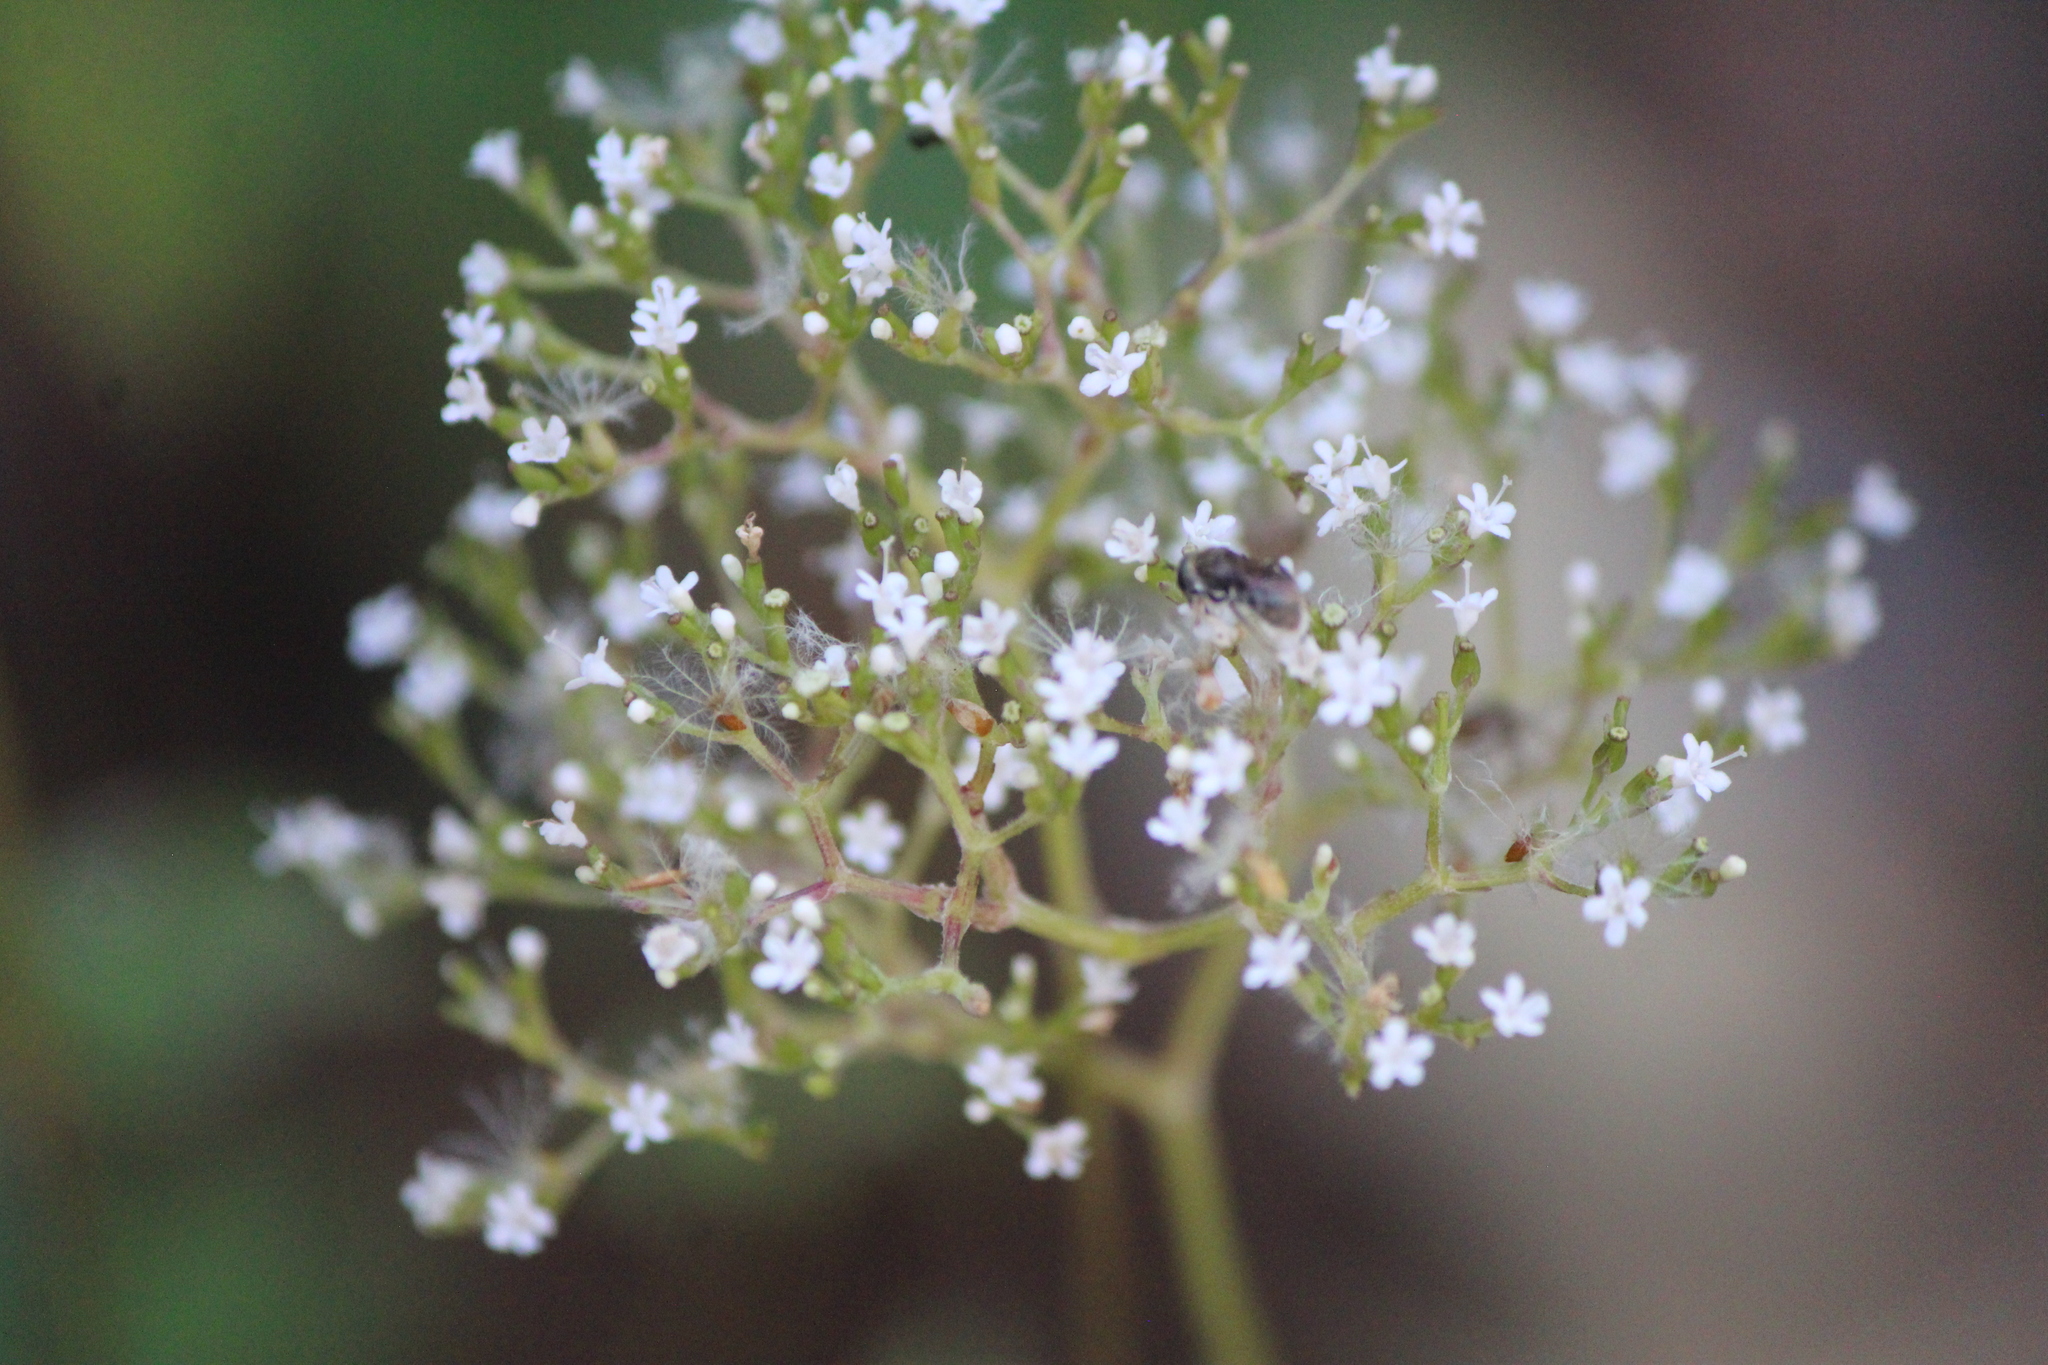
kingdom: Plantae
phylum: Tracheophyta
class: Magnoliopsida
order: Dipsacales
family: Caprifoliaceae
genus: Valeriana
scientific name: Valeriana vaginata
